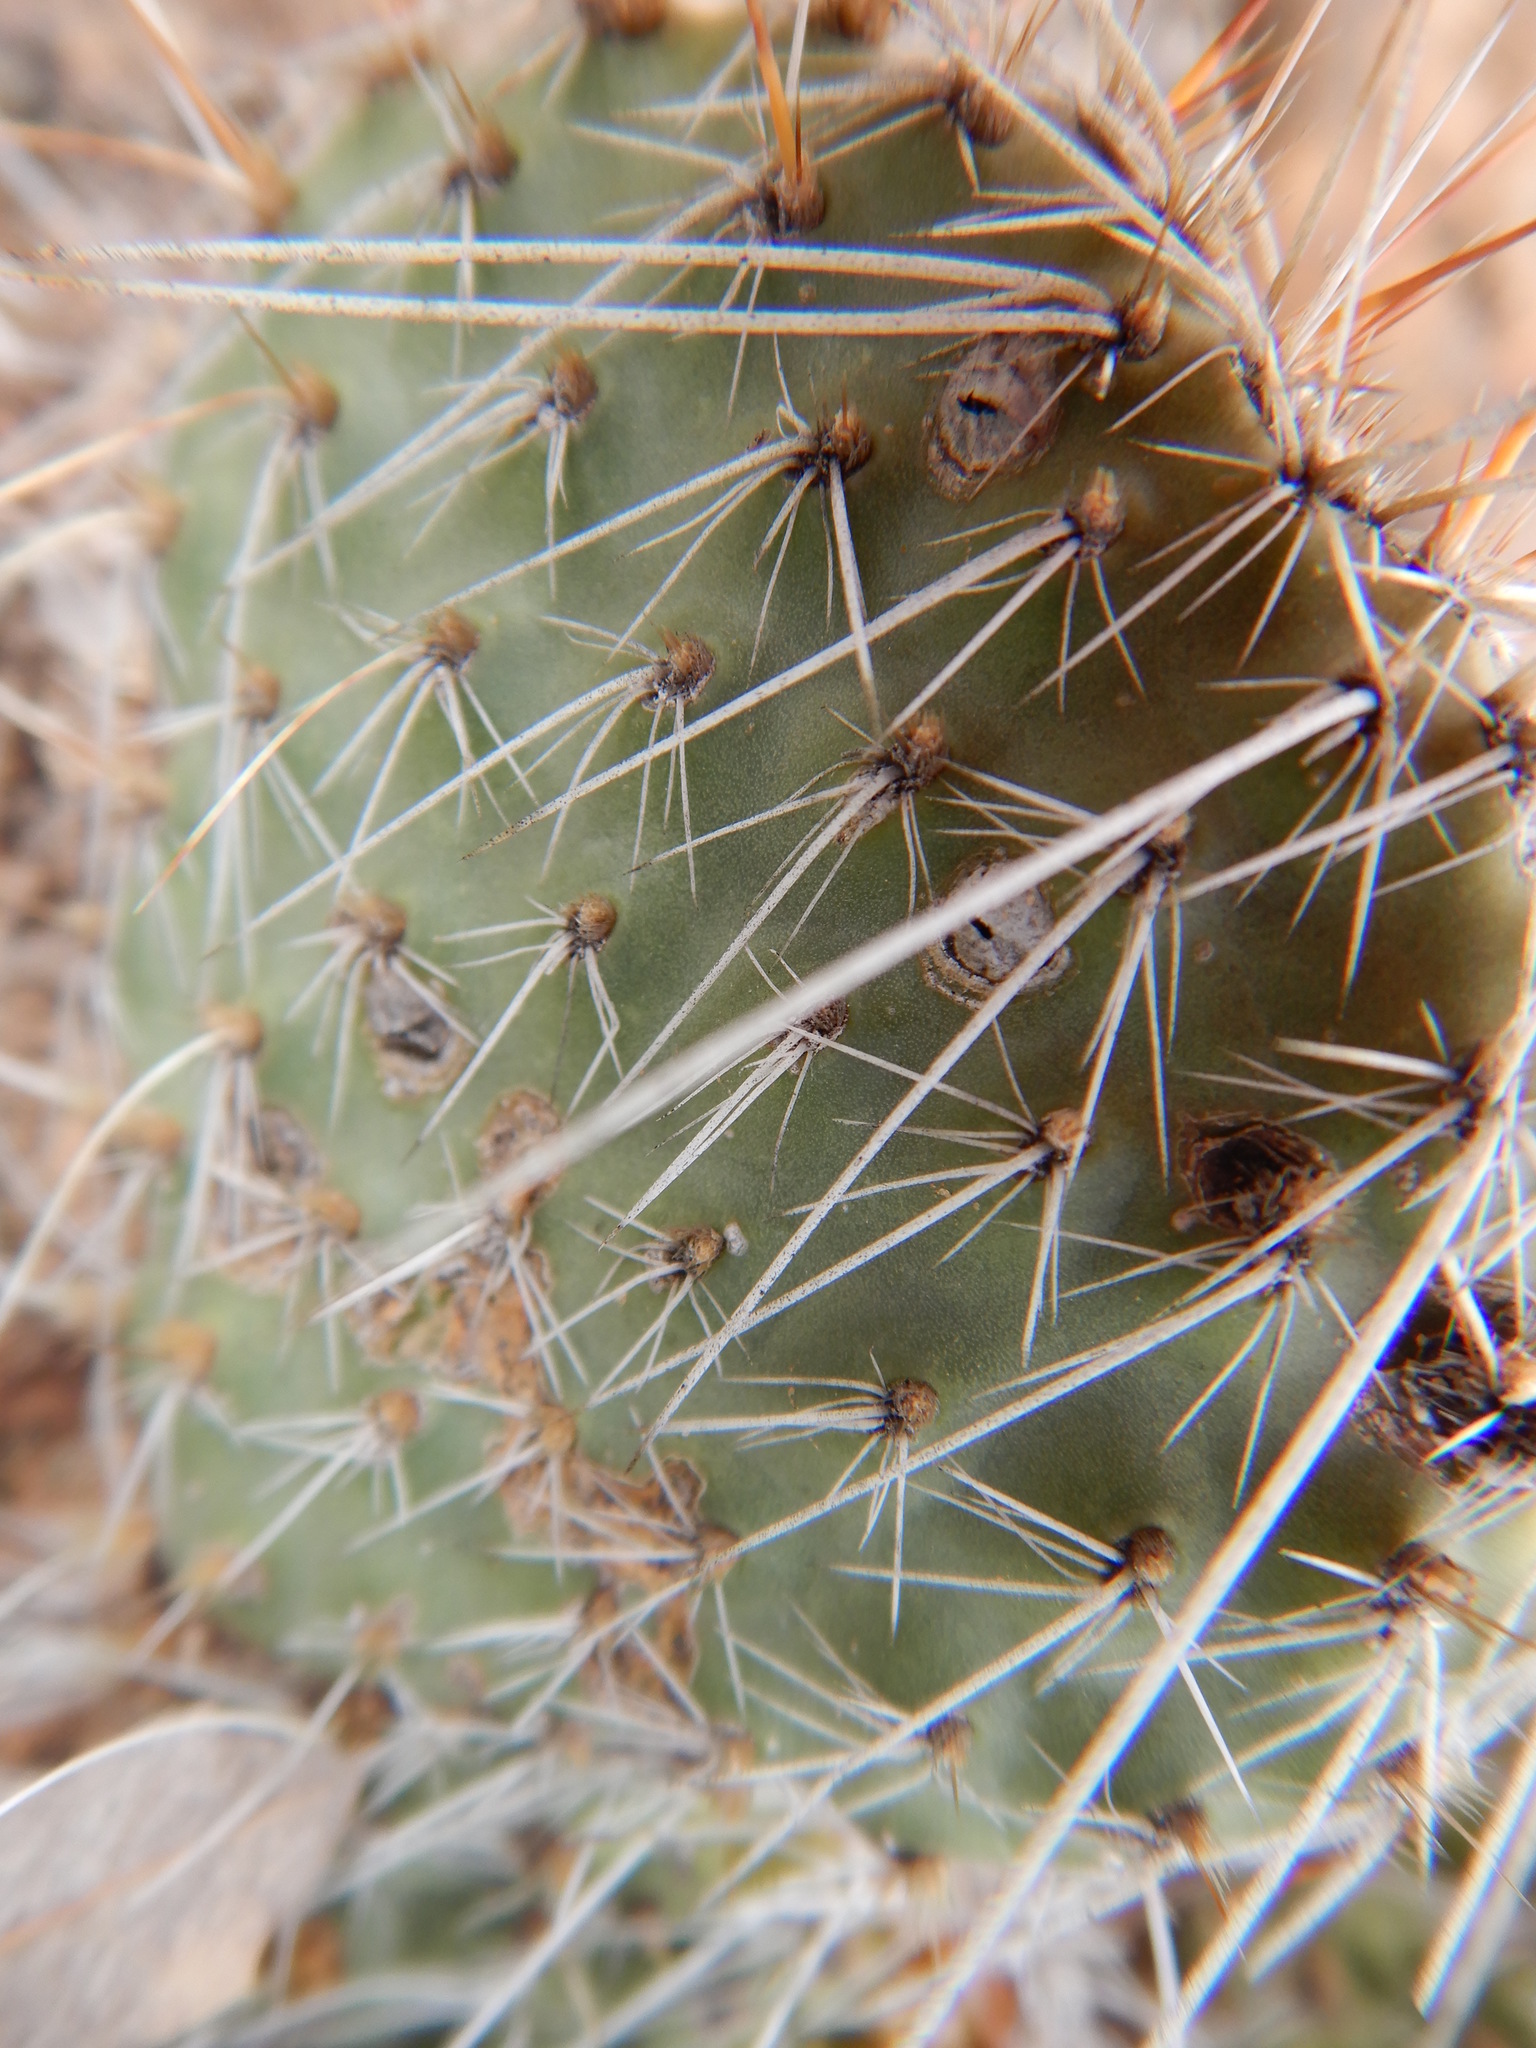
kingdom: Plantae
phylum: Tracheophyta
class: Magnoliopsida
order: Caryophyllales
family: Cactaceae
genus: Opuntia
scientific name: Opuntia polyacantha
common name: Plains prickly-pear
